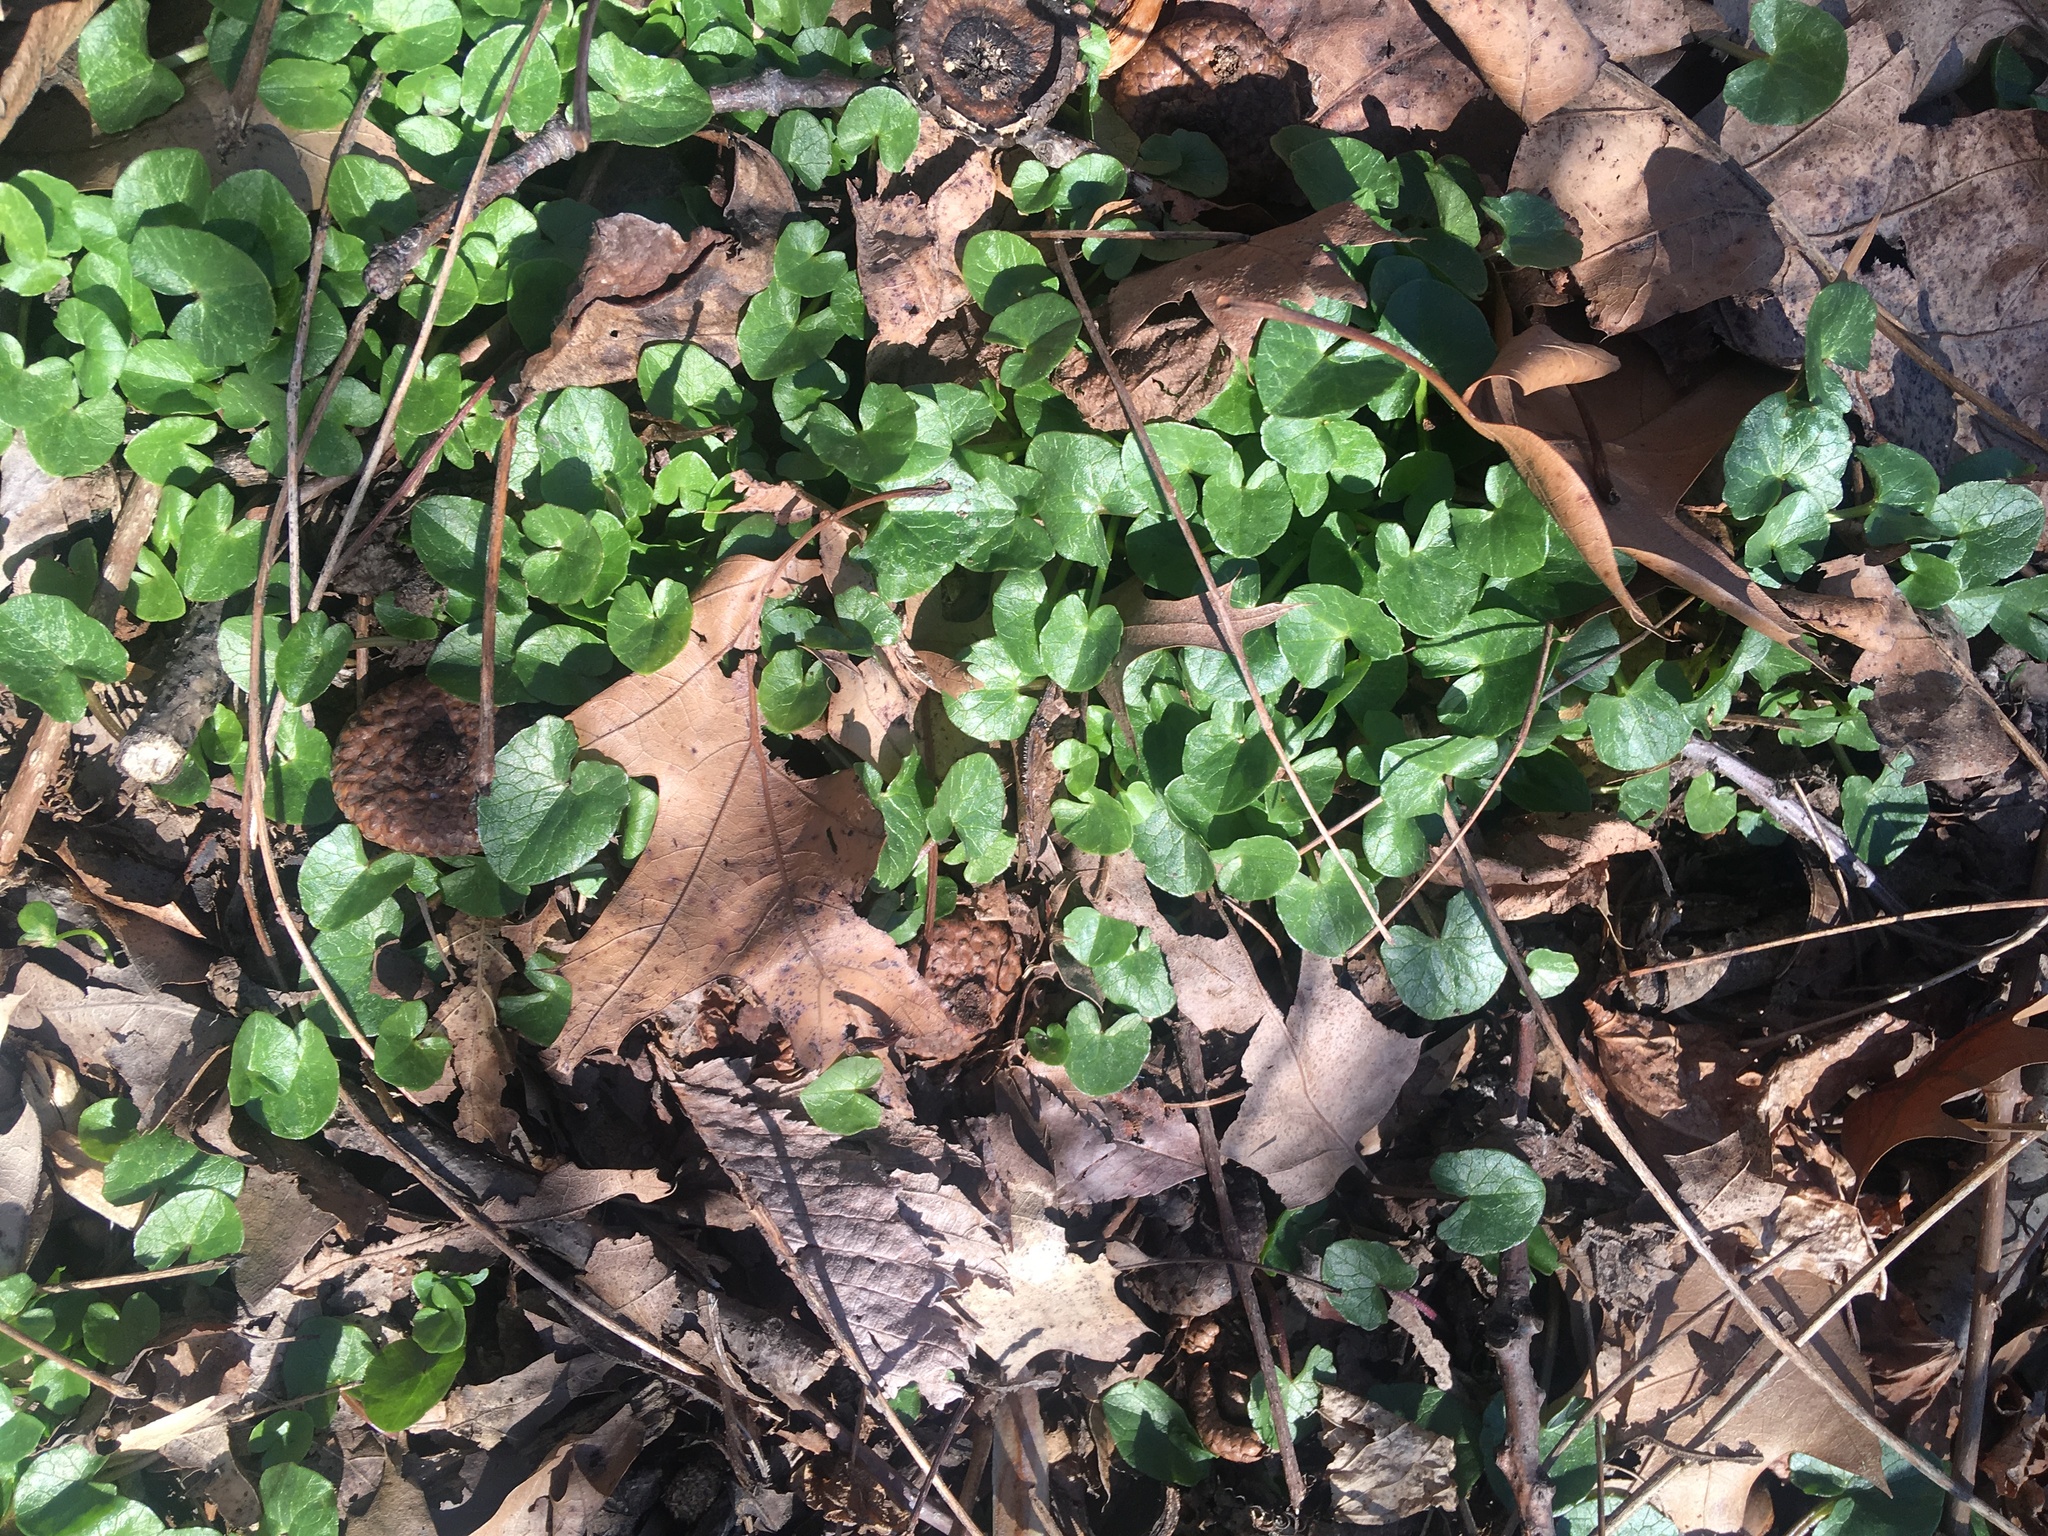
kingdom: Plantae
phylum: Tracheophyta
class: Magnoliopsida
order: Ranunculales
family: Ranunculaceae
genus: Ficaria
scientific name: Ficaria verna
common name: Lesser celandine
